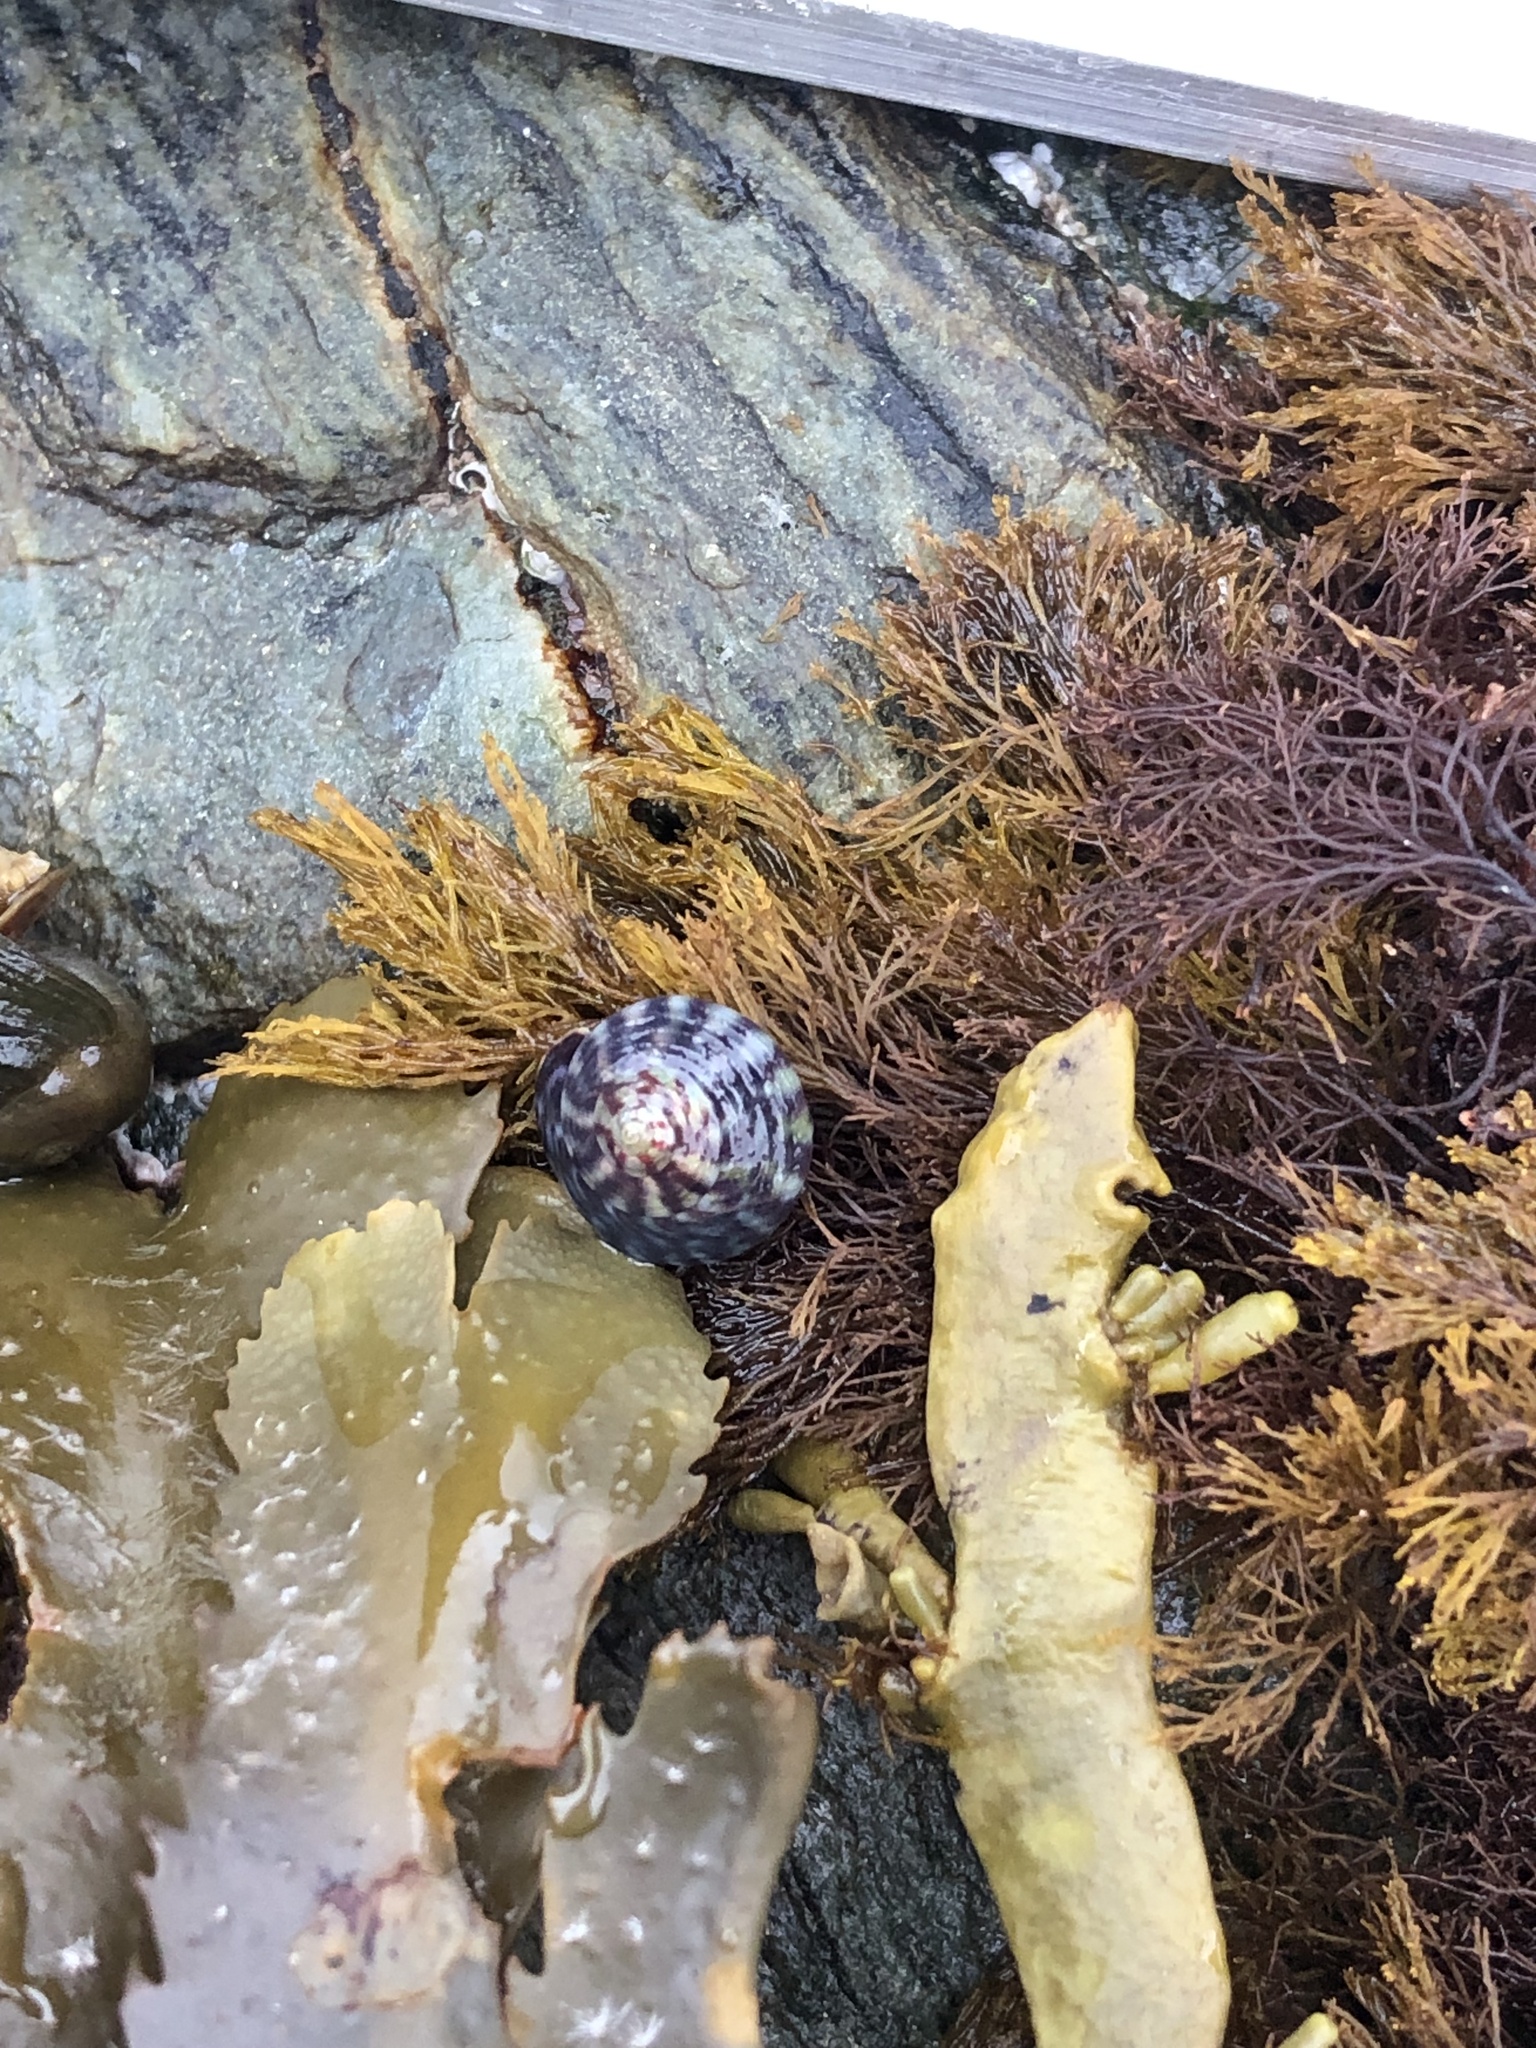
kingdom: Animalia
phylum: Mollusca
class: Gastropoda
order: Trochida
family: Trochidae
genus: Steromphala
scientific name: Steromphala umbilicalis
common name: Flat top shell
